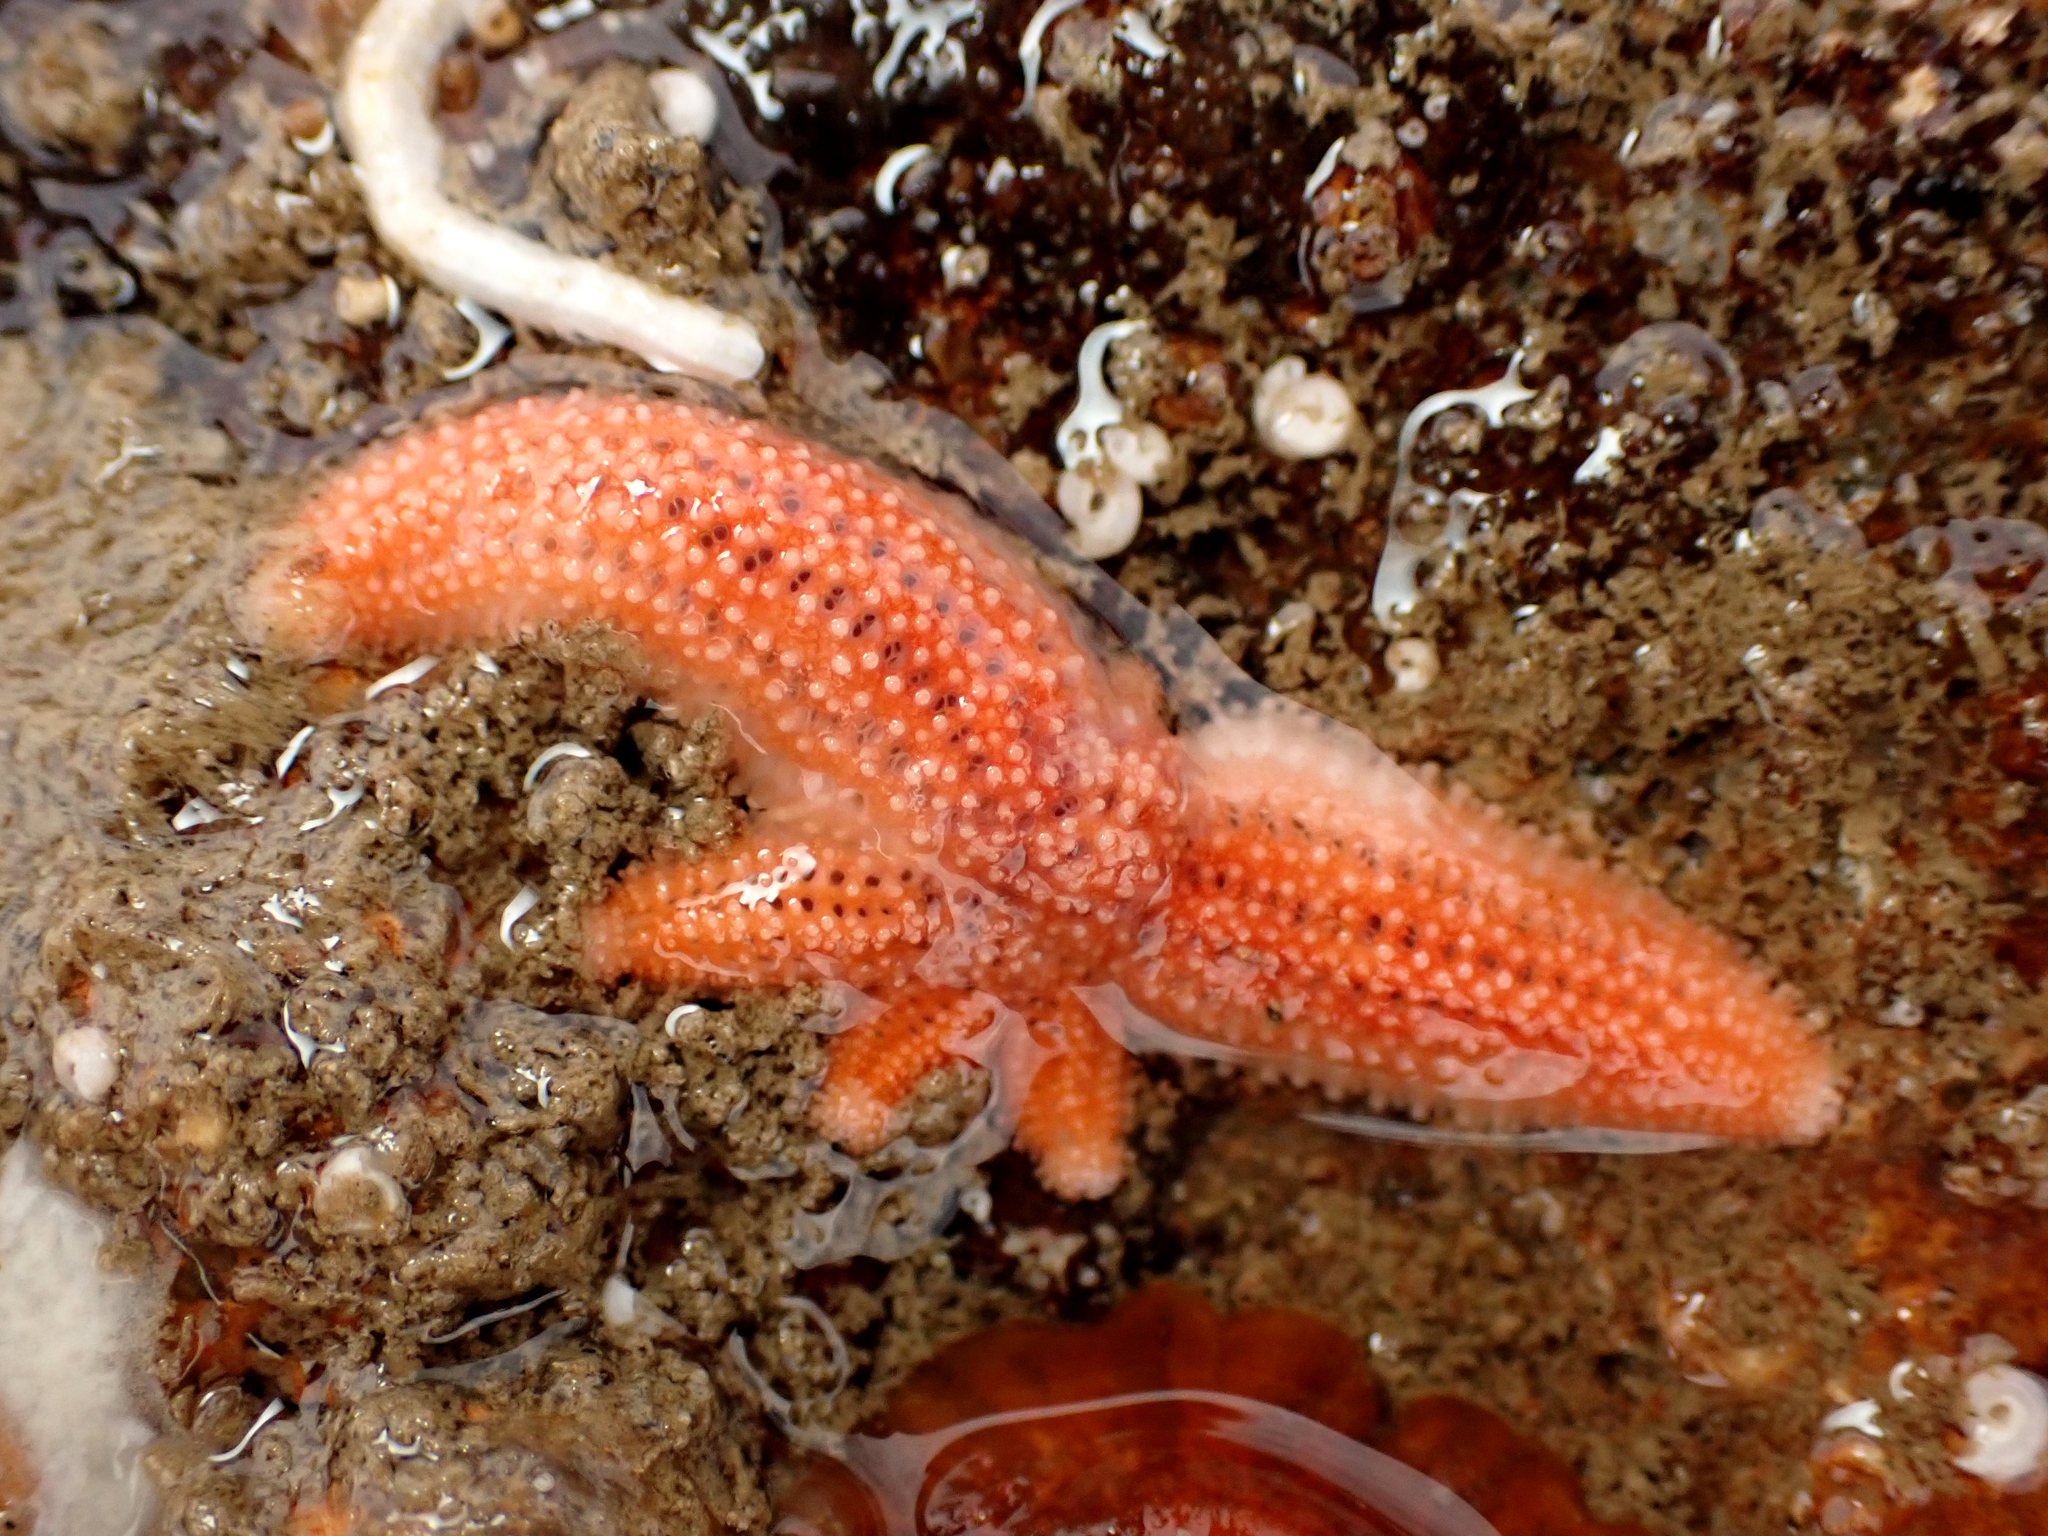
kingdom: Animalia
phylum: Echinodermata
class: Asteroidea
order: Forcipulatida
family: Stichasteridae
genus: Allostichaster
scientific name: Allostichaster insignis
